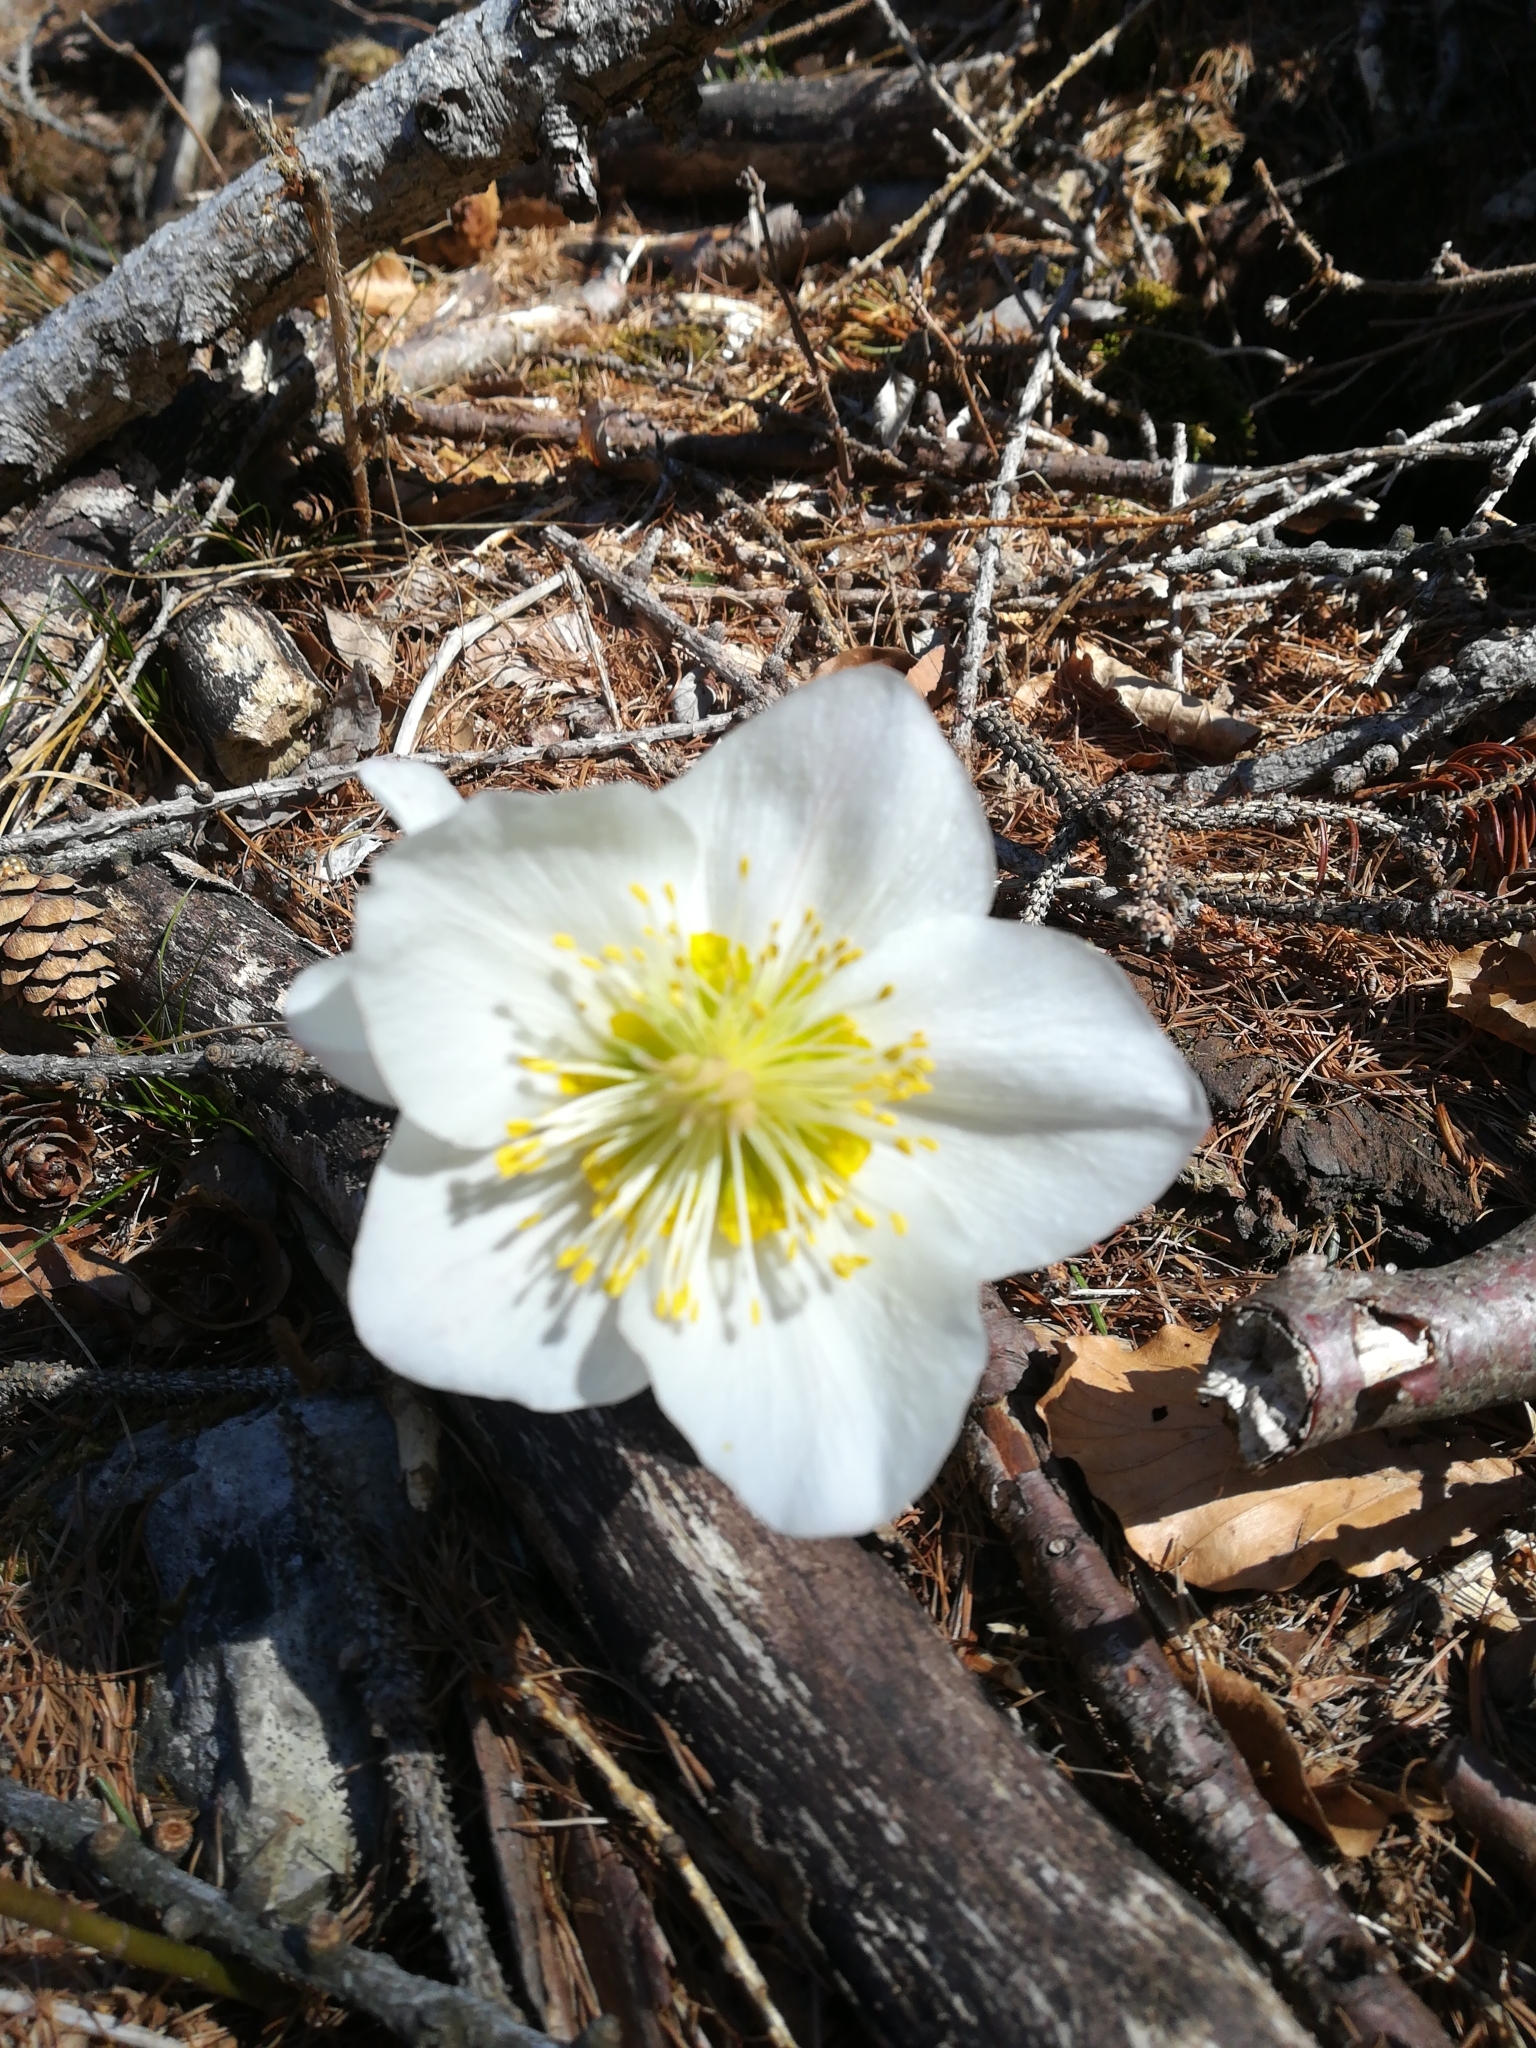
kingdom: Plantae
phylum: Tracheophyta
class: Magnoliopsida
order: Ranunculales
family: Ranunculaceae
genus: Helleborus
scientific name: Helleborus viridis
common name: Green hellebore
